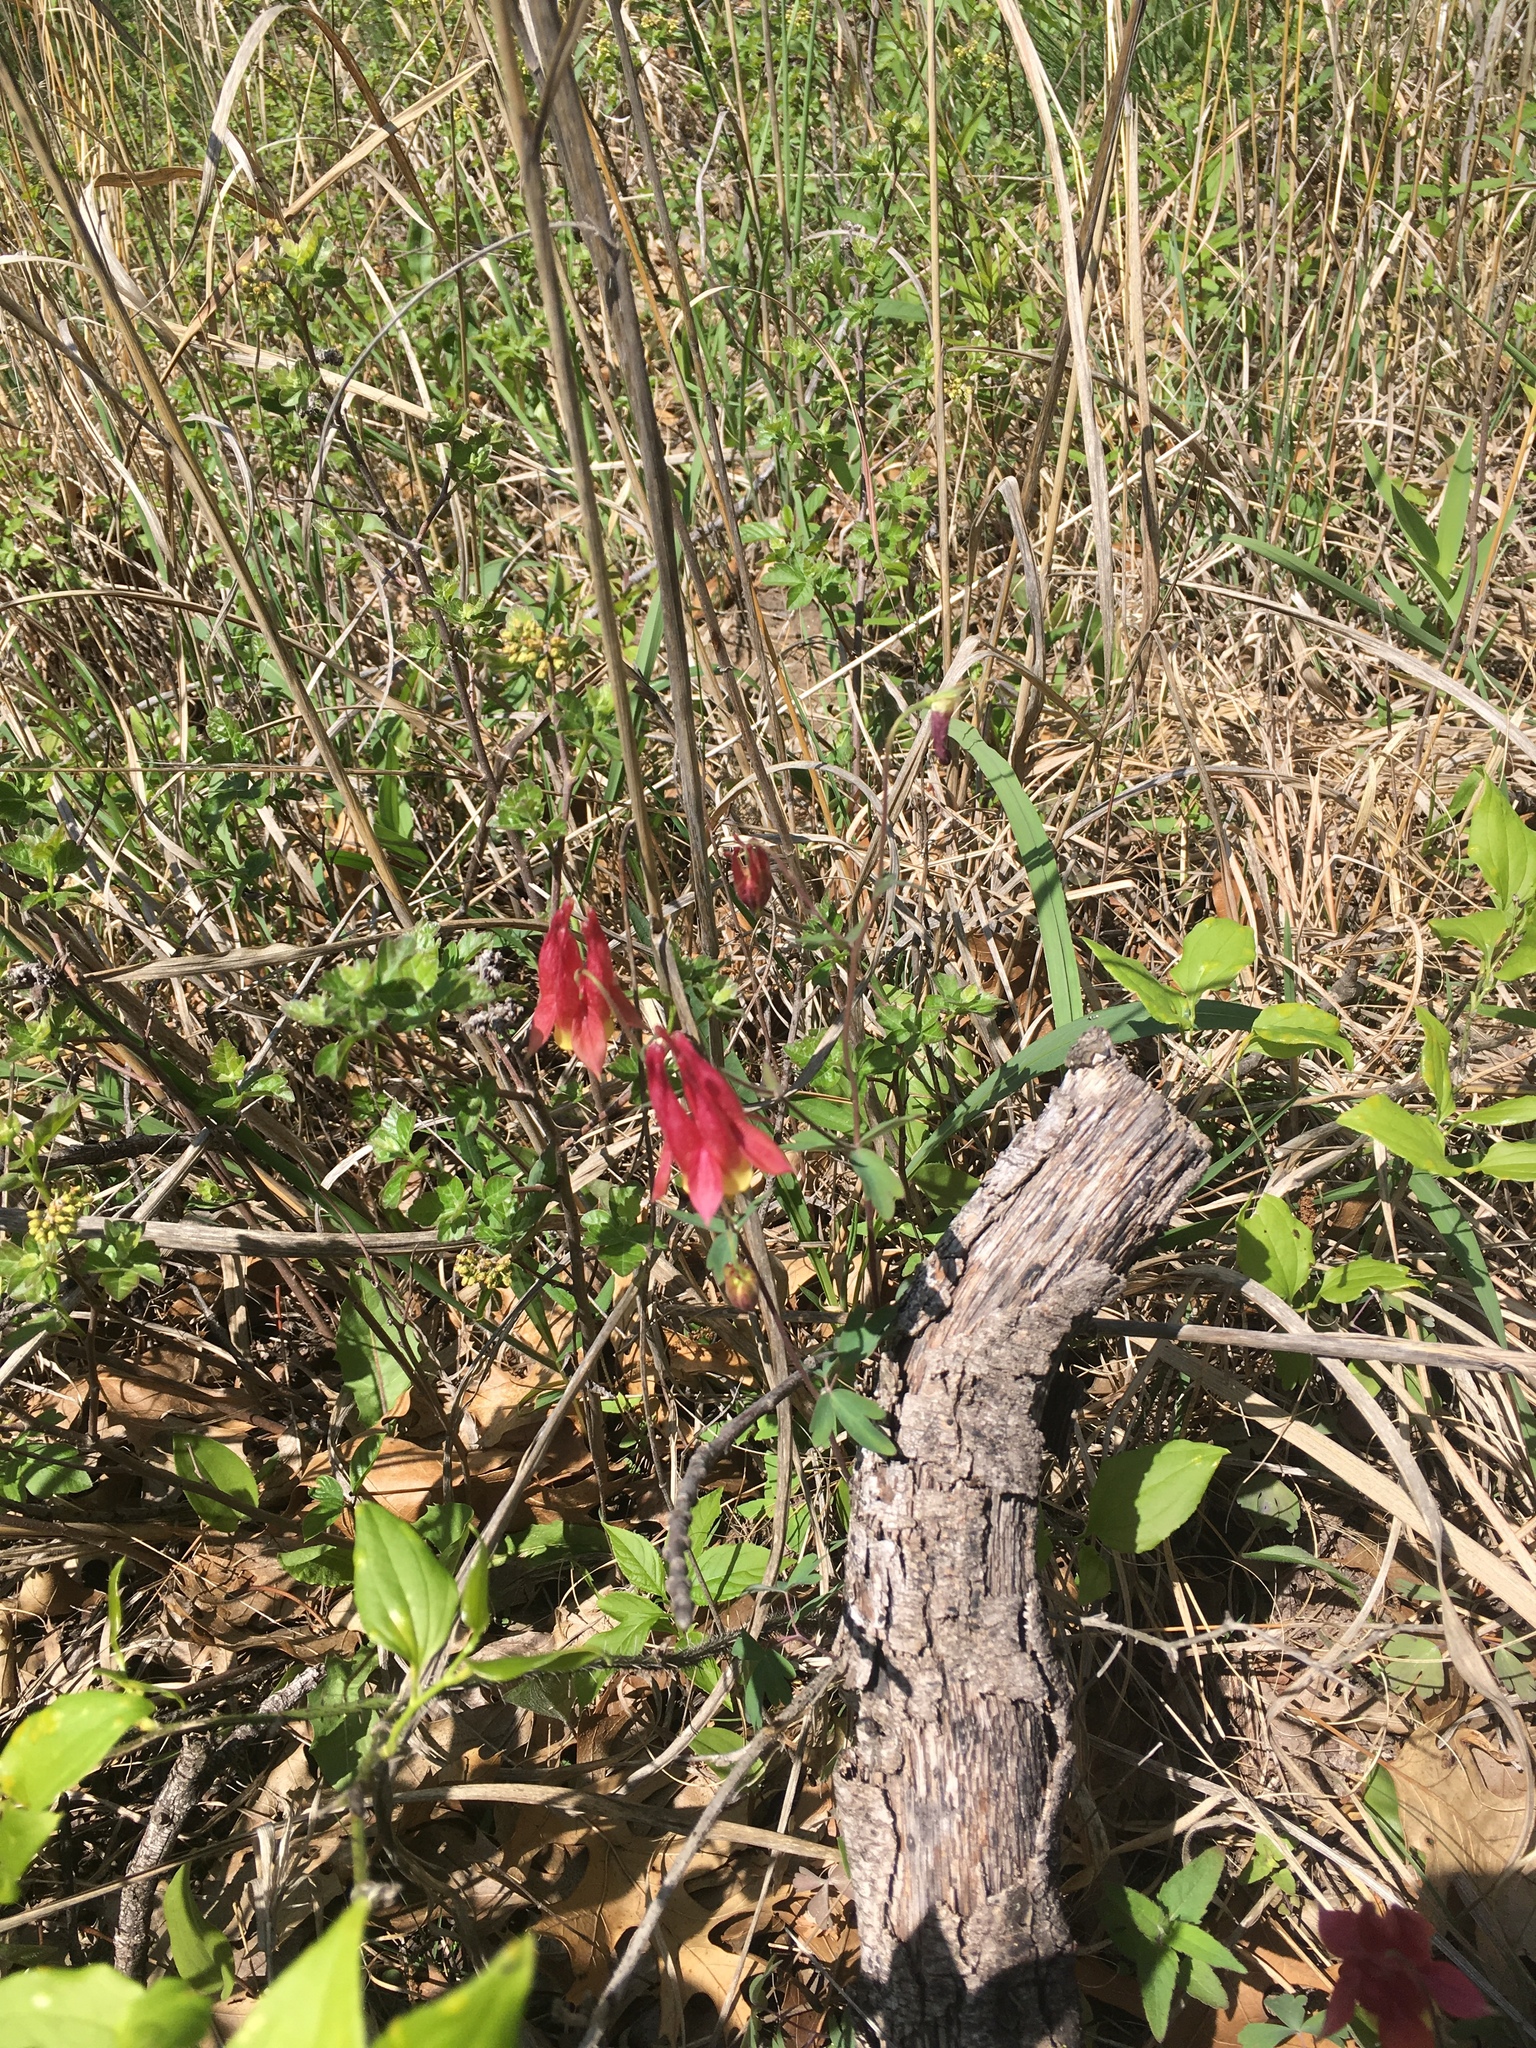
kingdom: Plantae
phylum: Tracheophyta
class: Magnoliopsida
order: Ranunculales
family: Ranunculaceae
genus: Aquilegia
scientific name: Aquilegia canadensis
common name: American columbine
